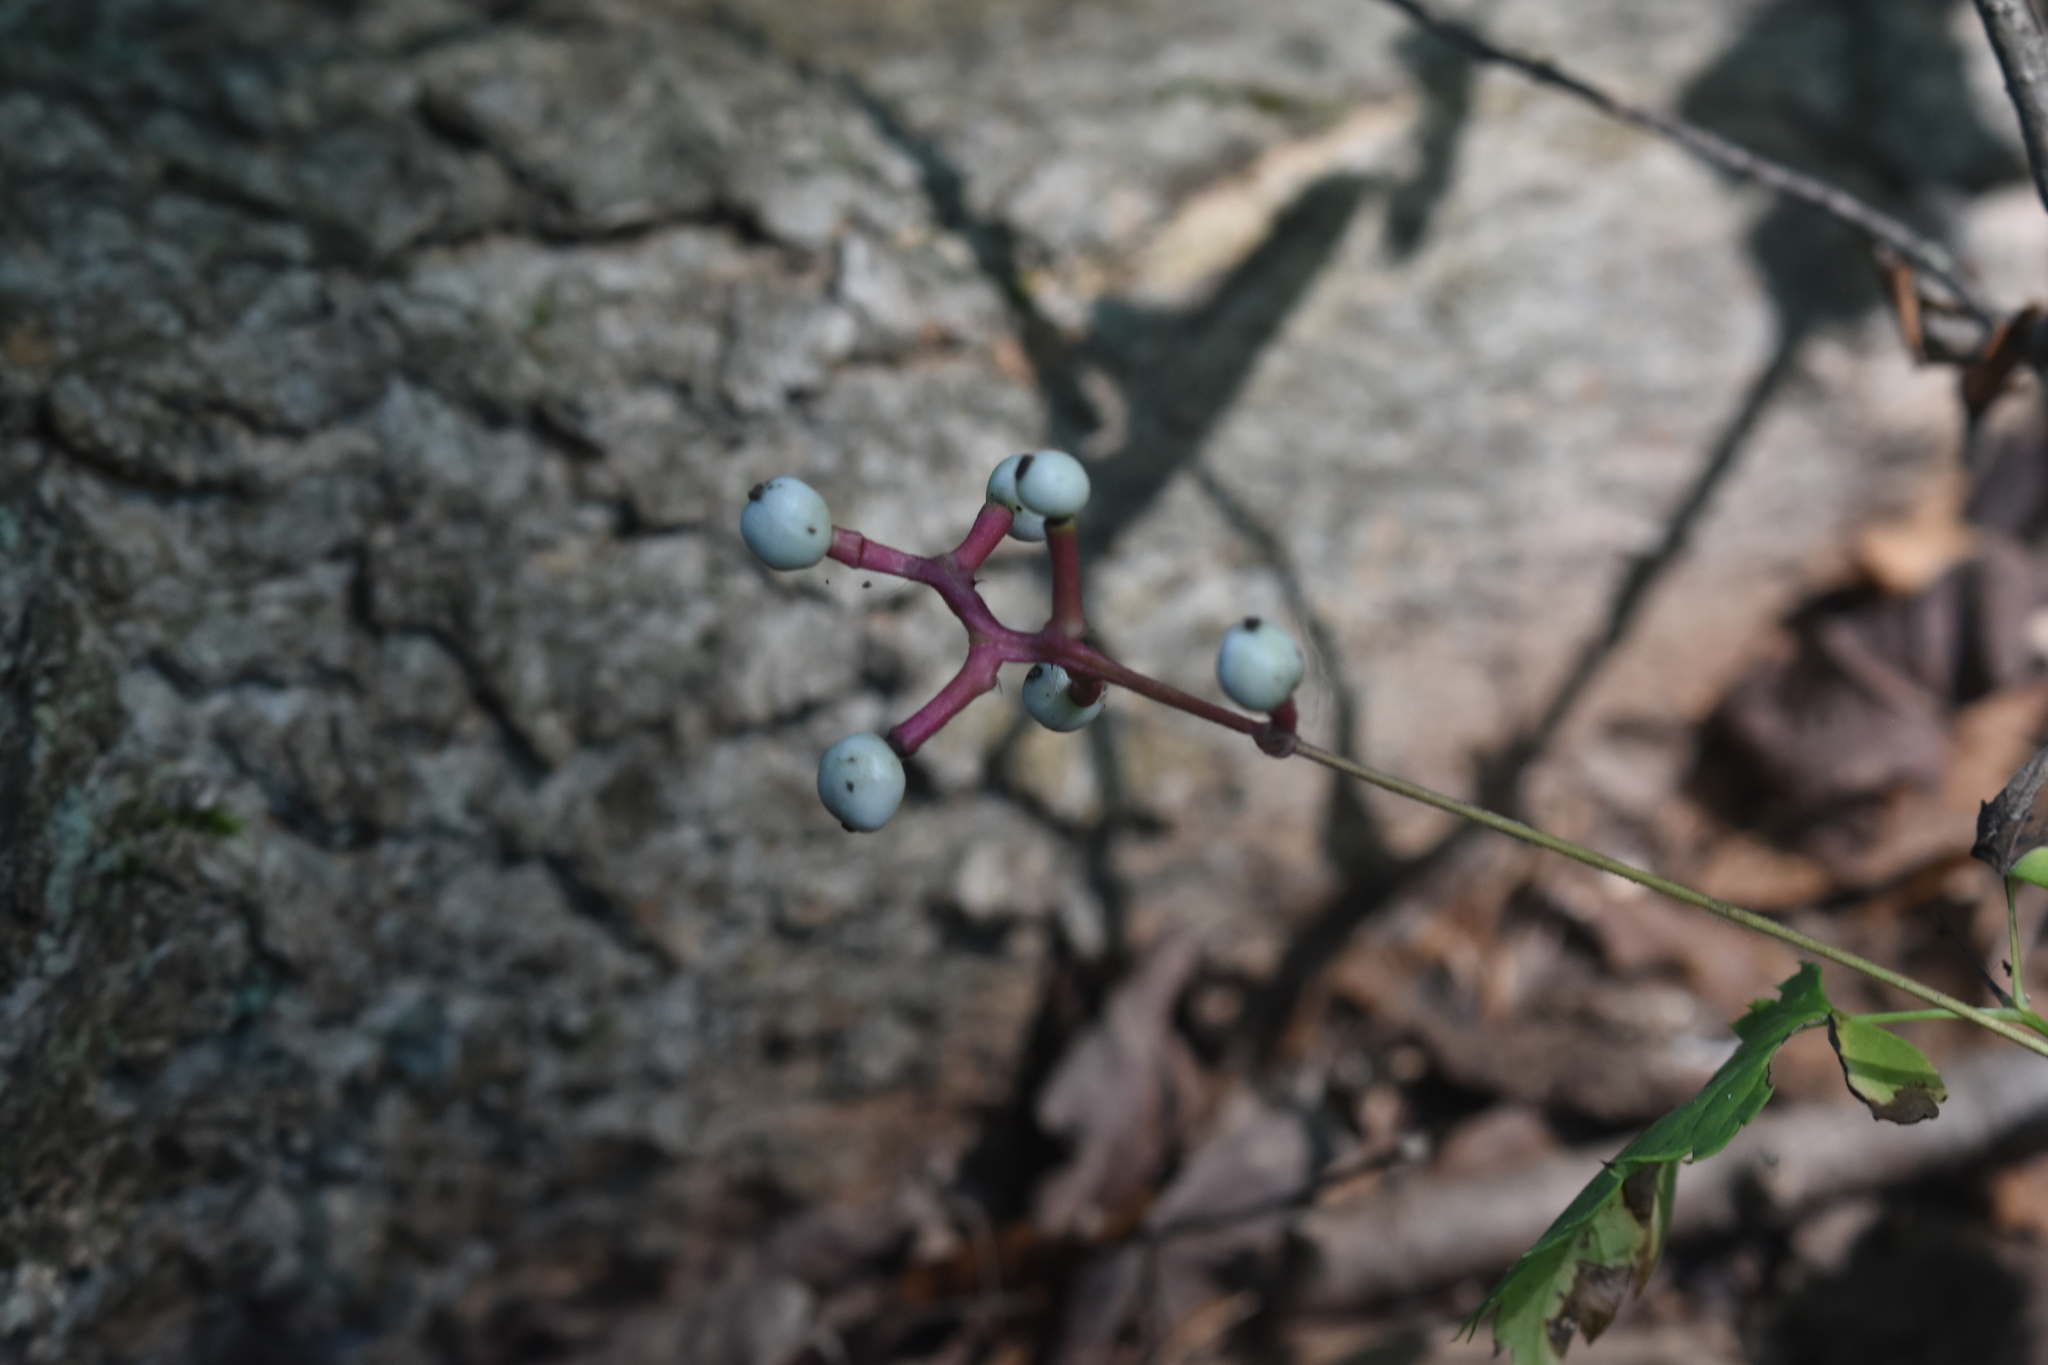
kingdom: Plantae
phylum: Tracheophyta
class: Magnoliopsida
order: Ranunculales
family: Ranunculaceae
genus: Actaea
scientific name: Actaea pachypoda
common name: Doll's-eyes
